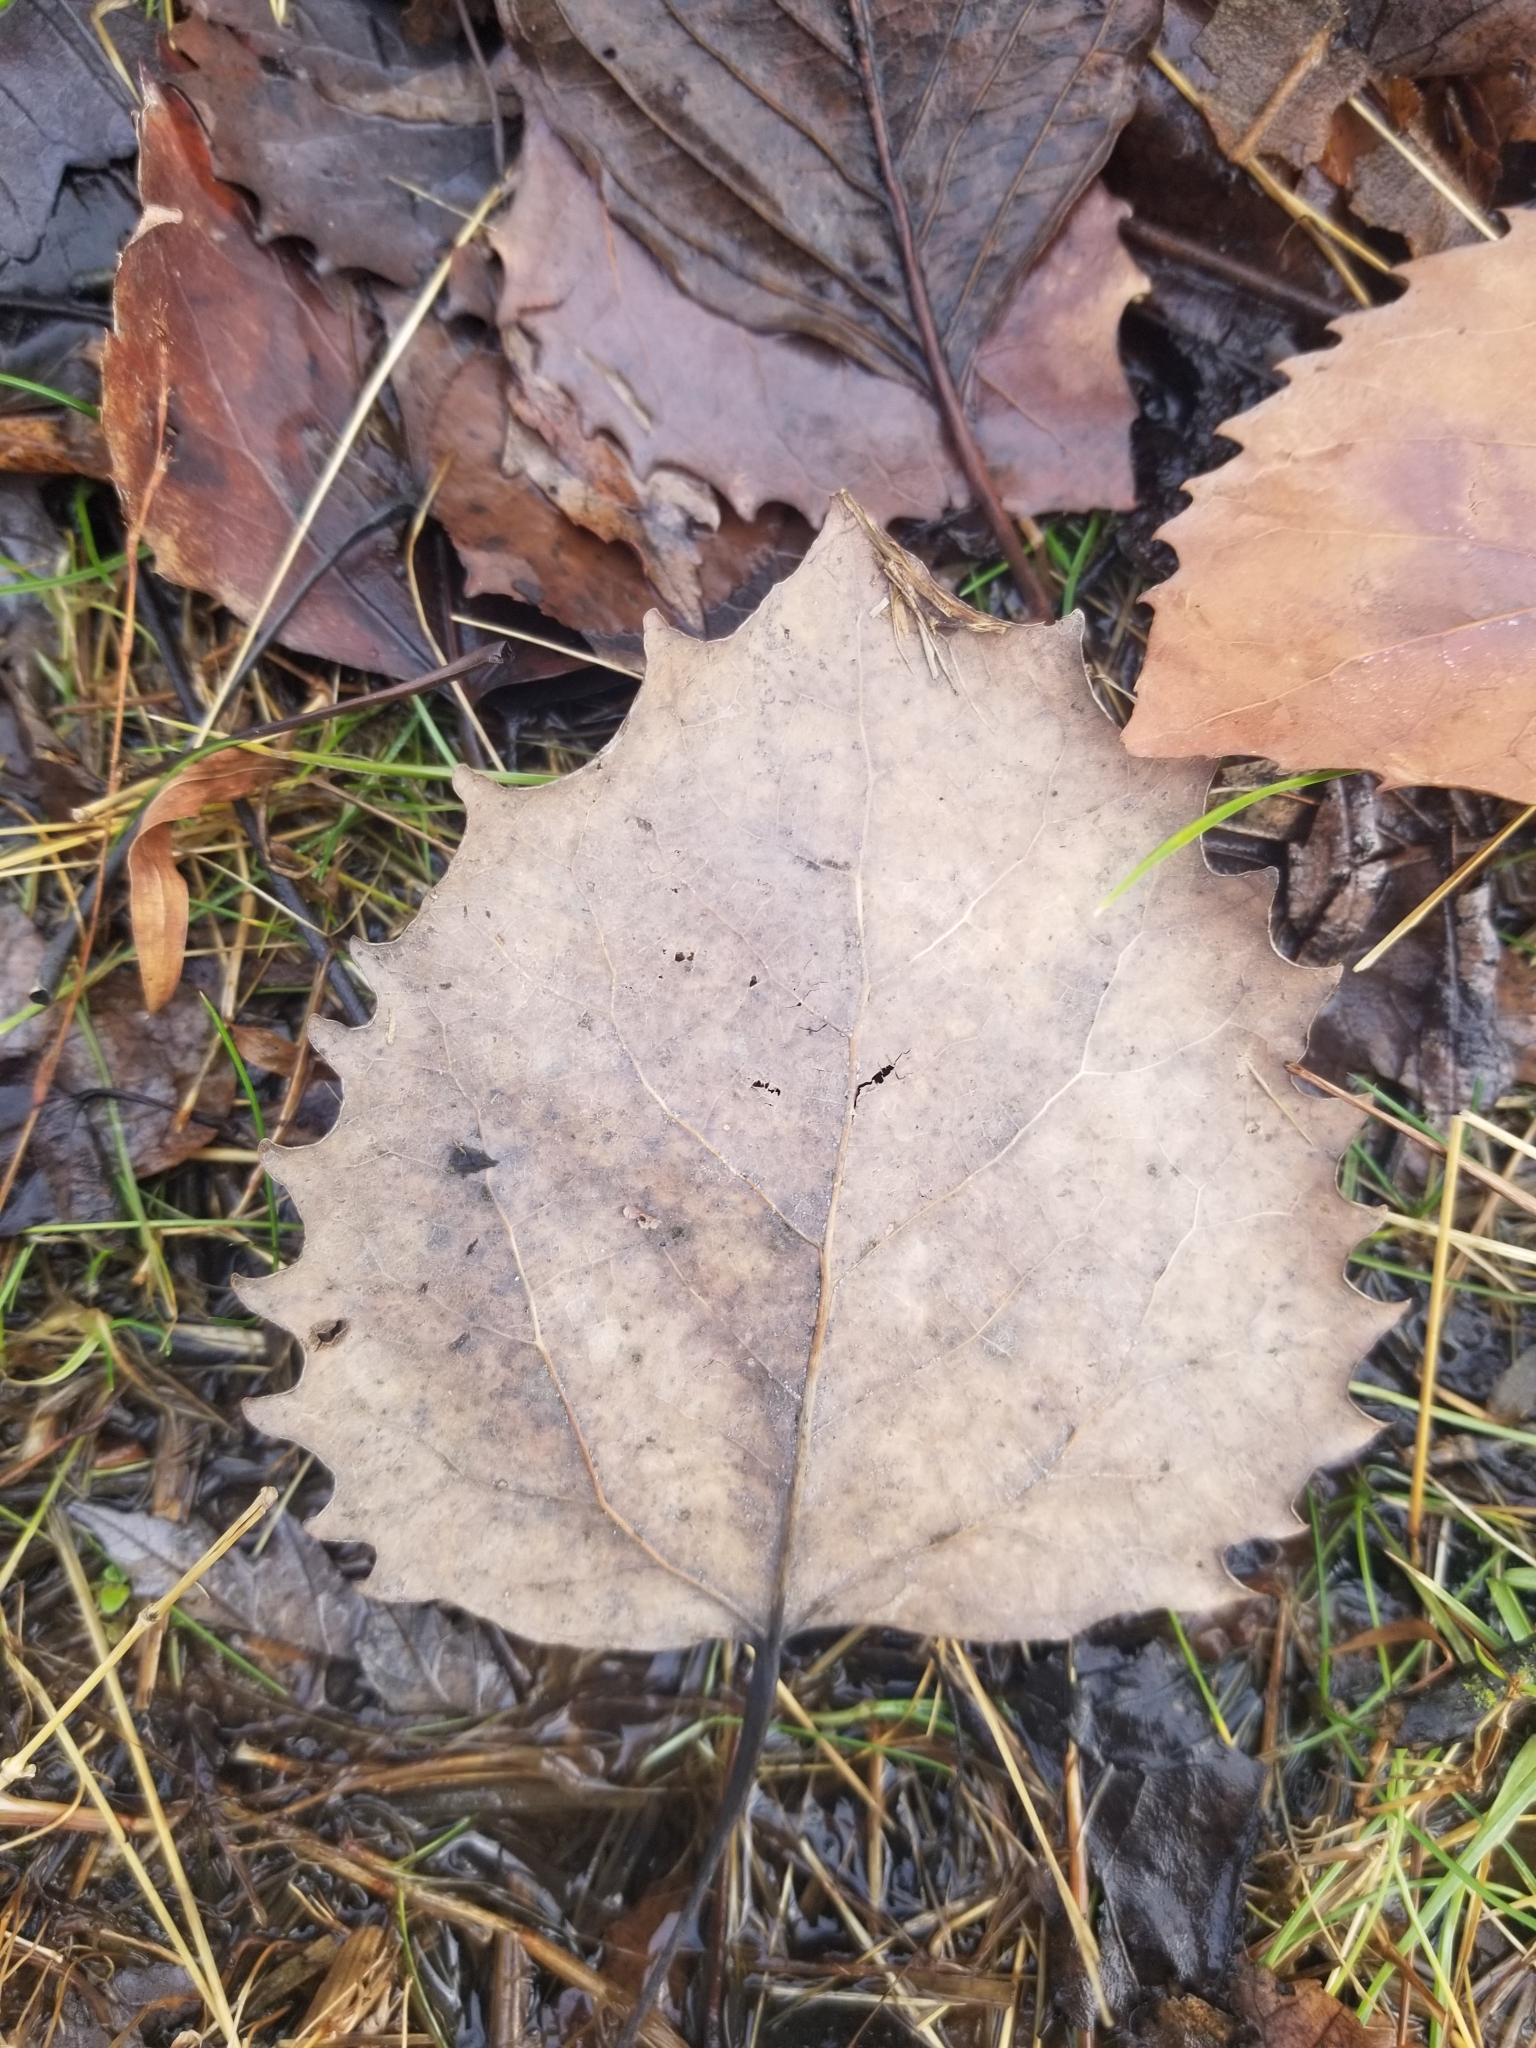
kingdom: Plantae
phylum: Tracheophyta
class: Magnoliopsida
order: Malpighiales
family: Salicaceae
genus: Populus
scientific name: Populus grandidentata
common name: Bigtooth aspen
